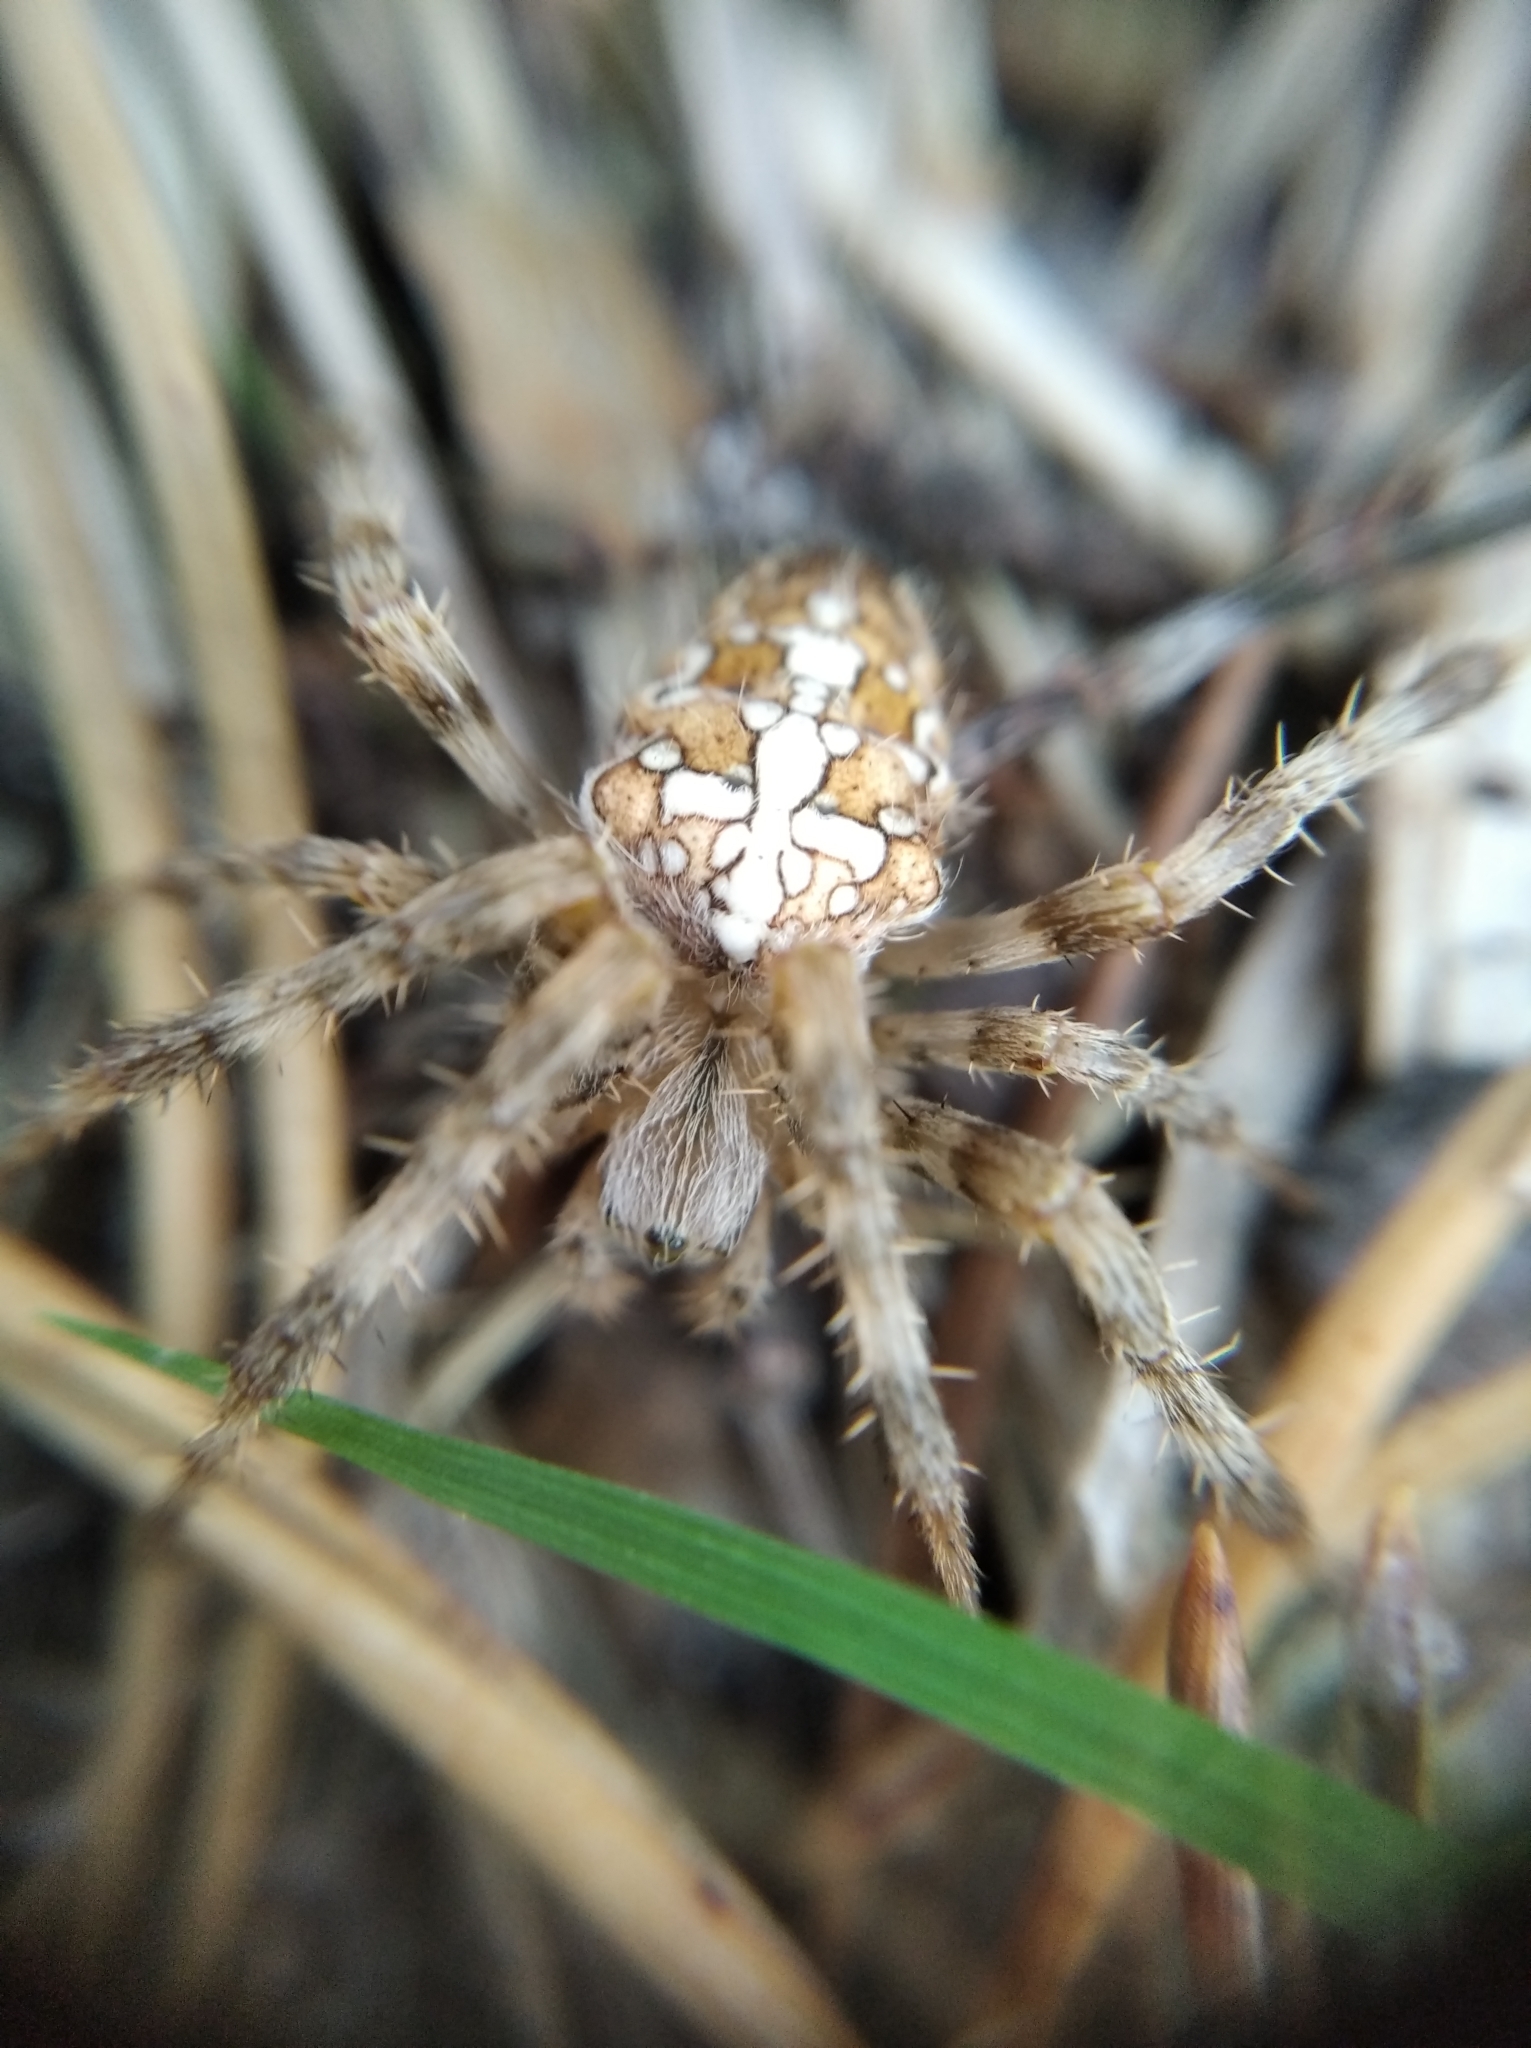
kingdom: Animalia
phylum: Arthropoda
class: Arachnida
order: Araneae
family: Araneidae
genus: Araneus
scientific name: Araneus diadematus
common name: Cross orbweaver
